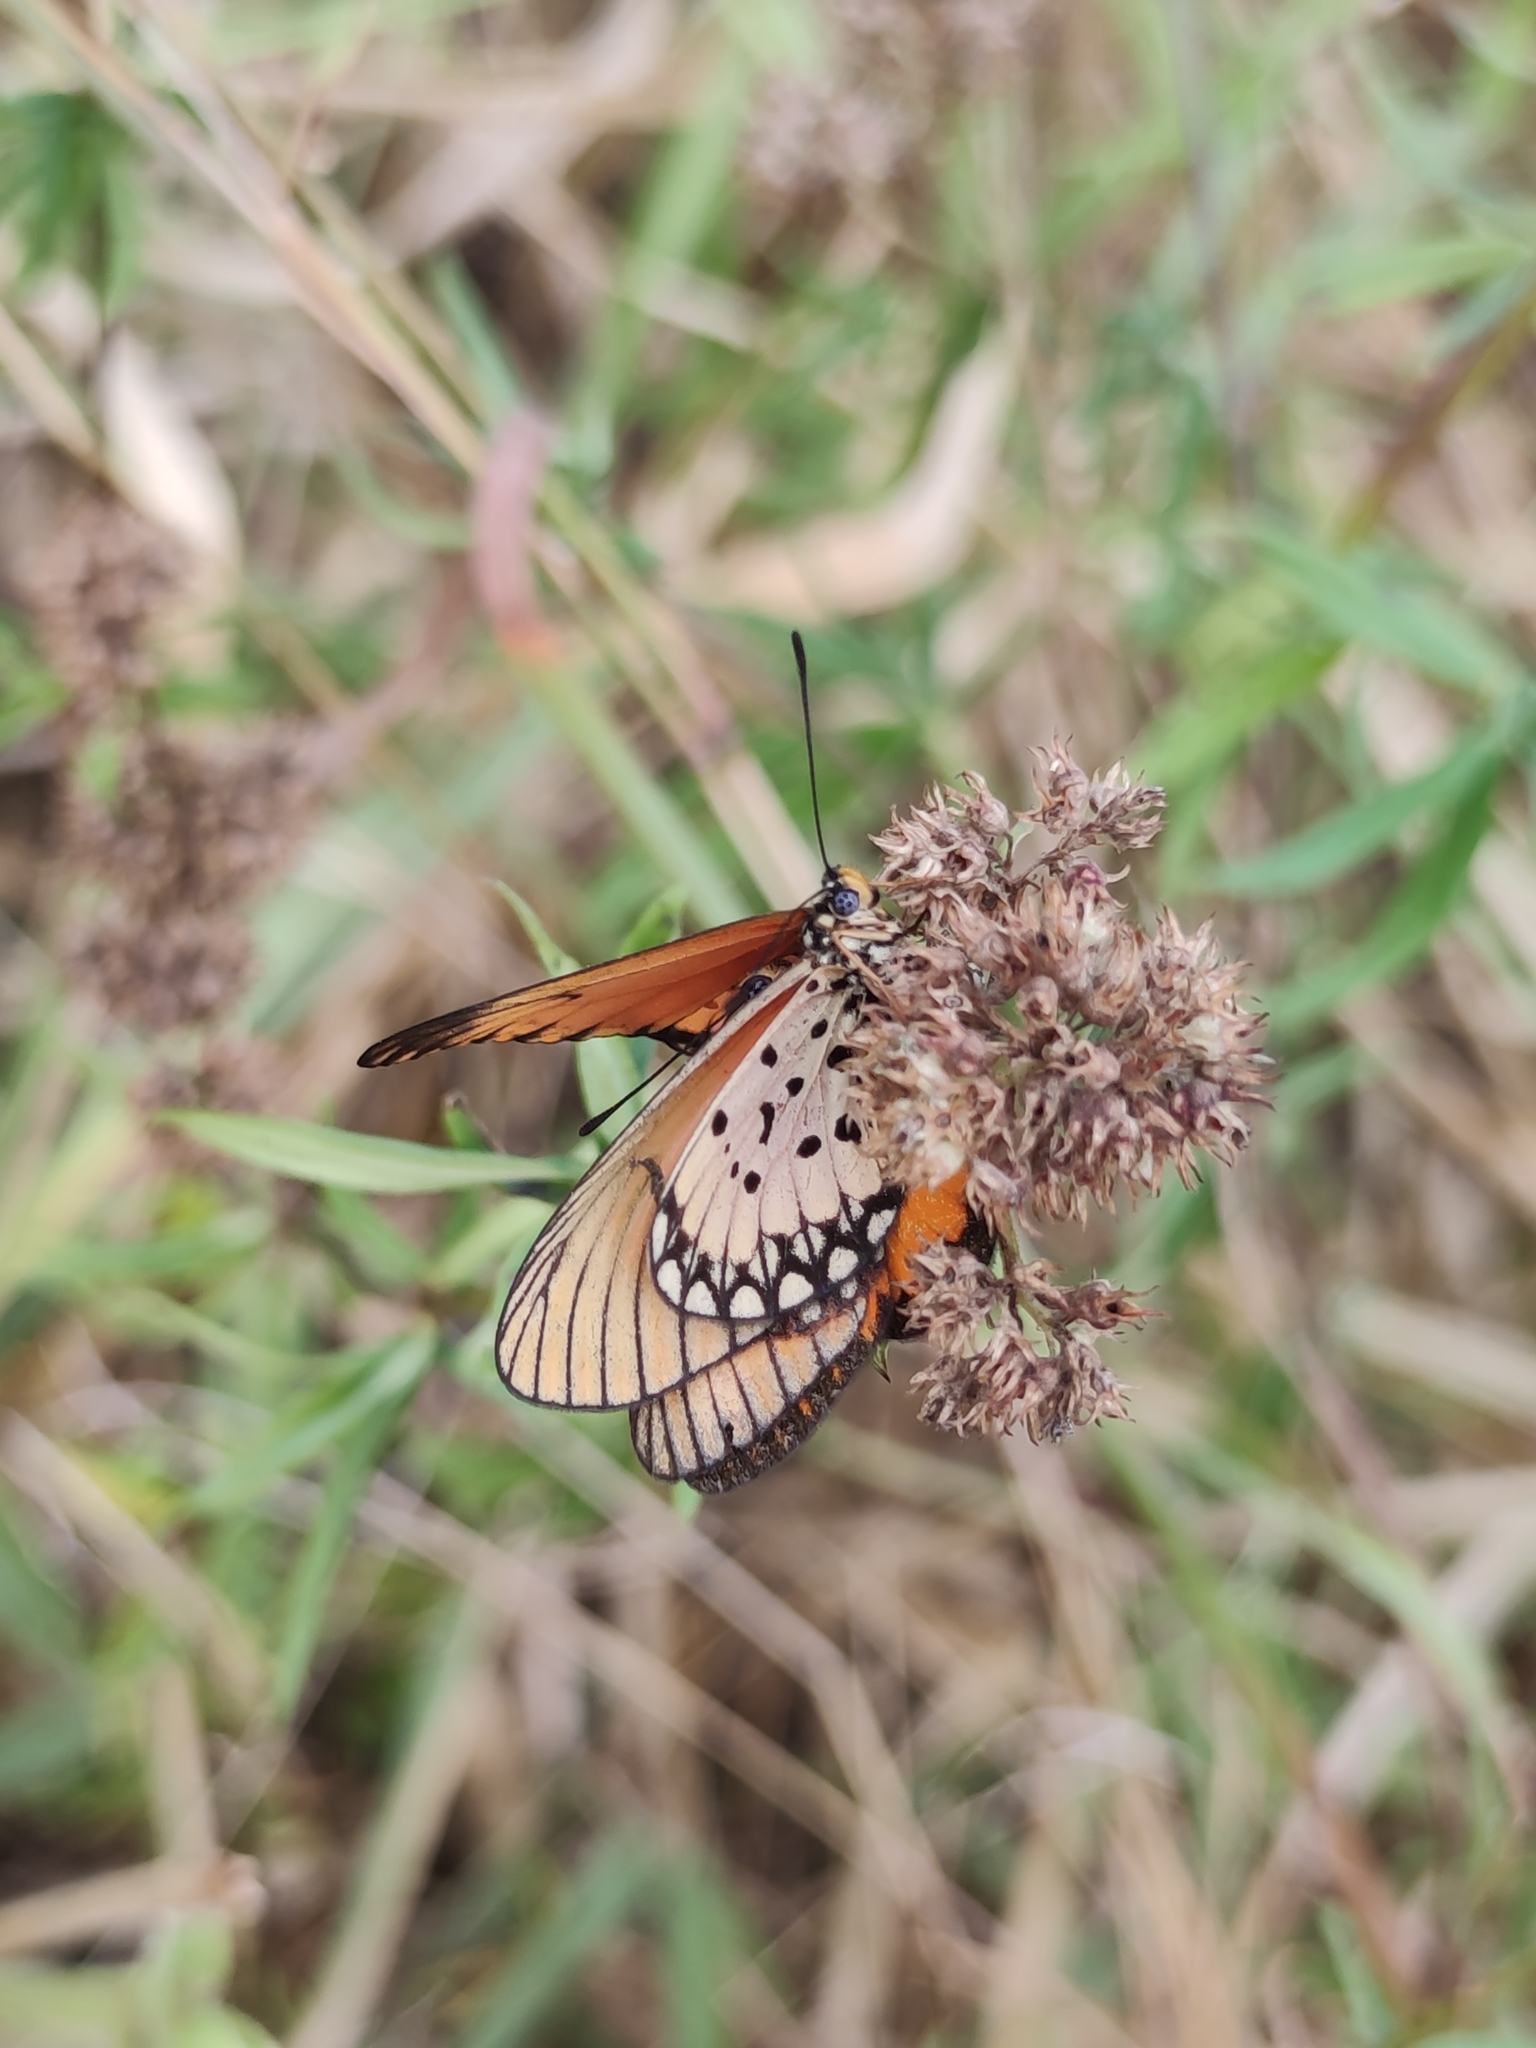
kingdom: Animalia
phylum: Arthropoda
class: Insecta
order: Lepidoptera
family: Nymphalidae
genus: Acraea
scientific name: Acraea Telchinia serena
